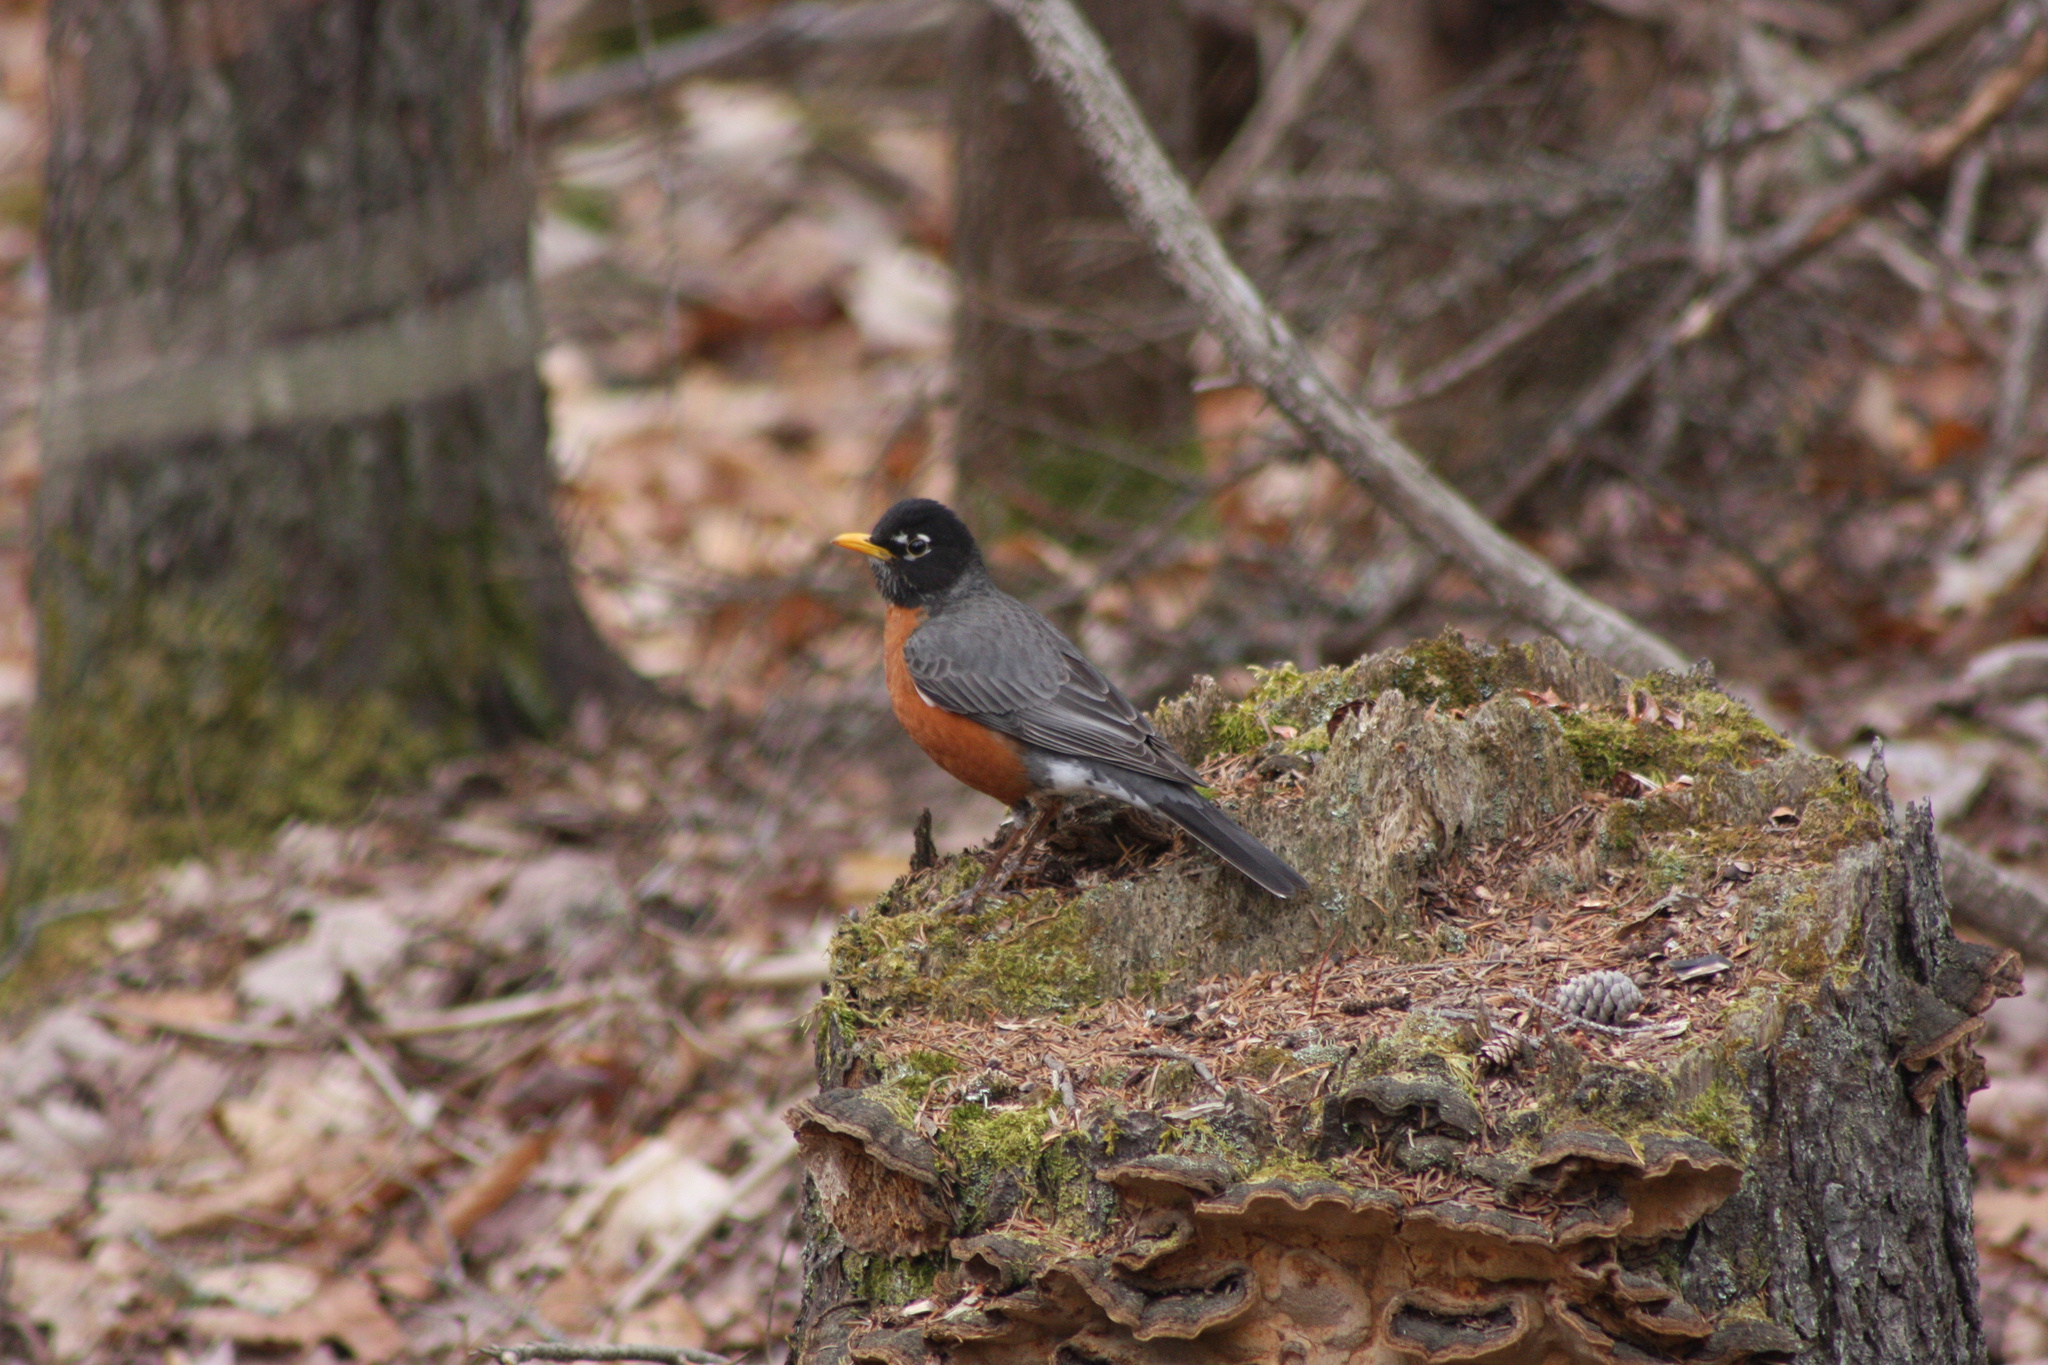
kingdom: Animalia
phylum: Chordata
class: Aves
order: Passeriformes
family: Turdidae
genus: Turdus
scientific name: Turdus migratorius
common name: American robin
